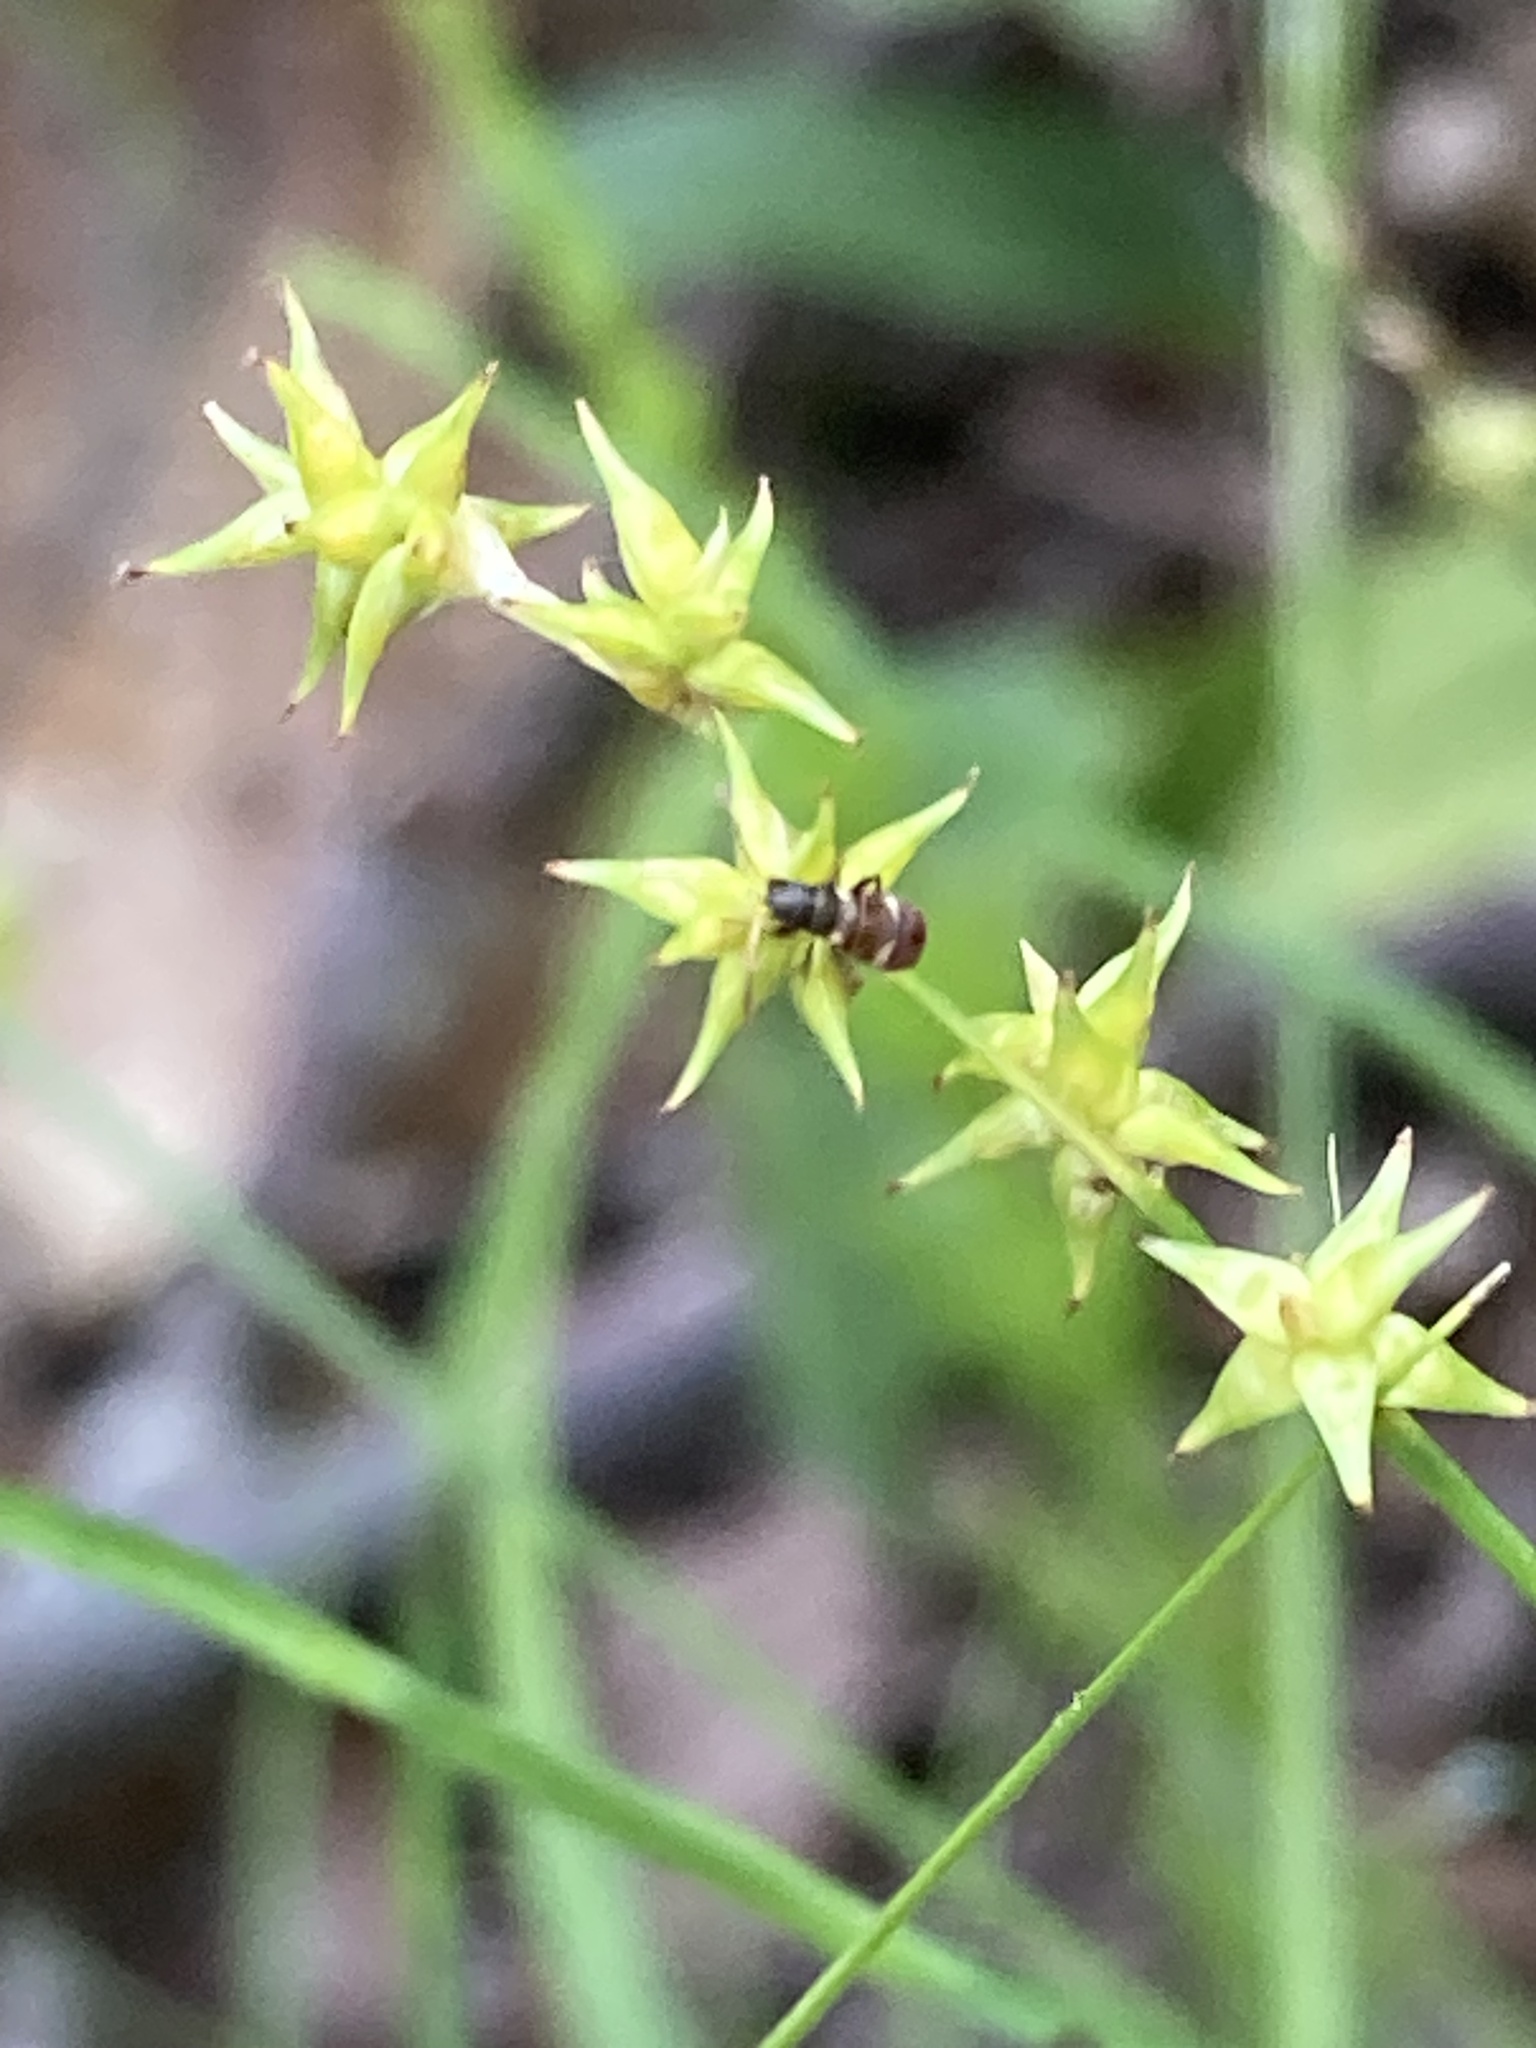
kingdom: Plantae
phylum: Tracheophyta
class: Liliopsida
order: Poales
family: Cyperaceae
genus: Carex
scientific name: Carex echinata
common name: Star sedge
